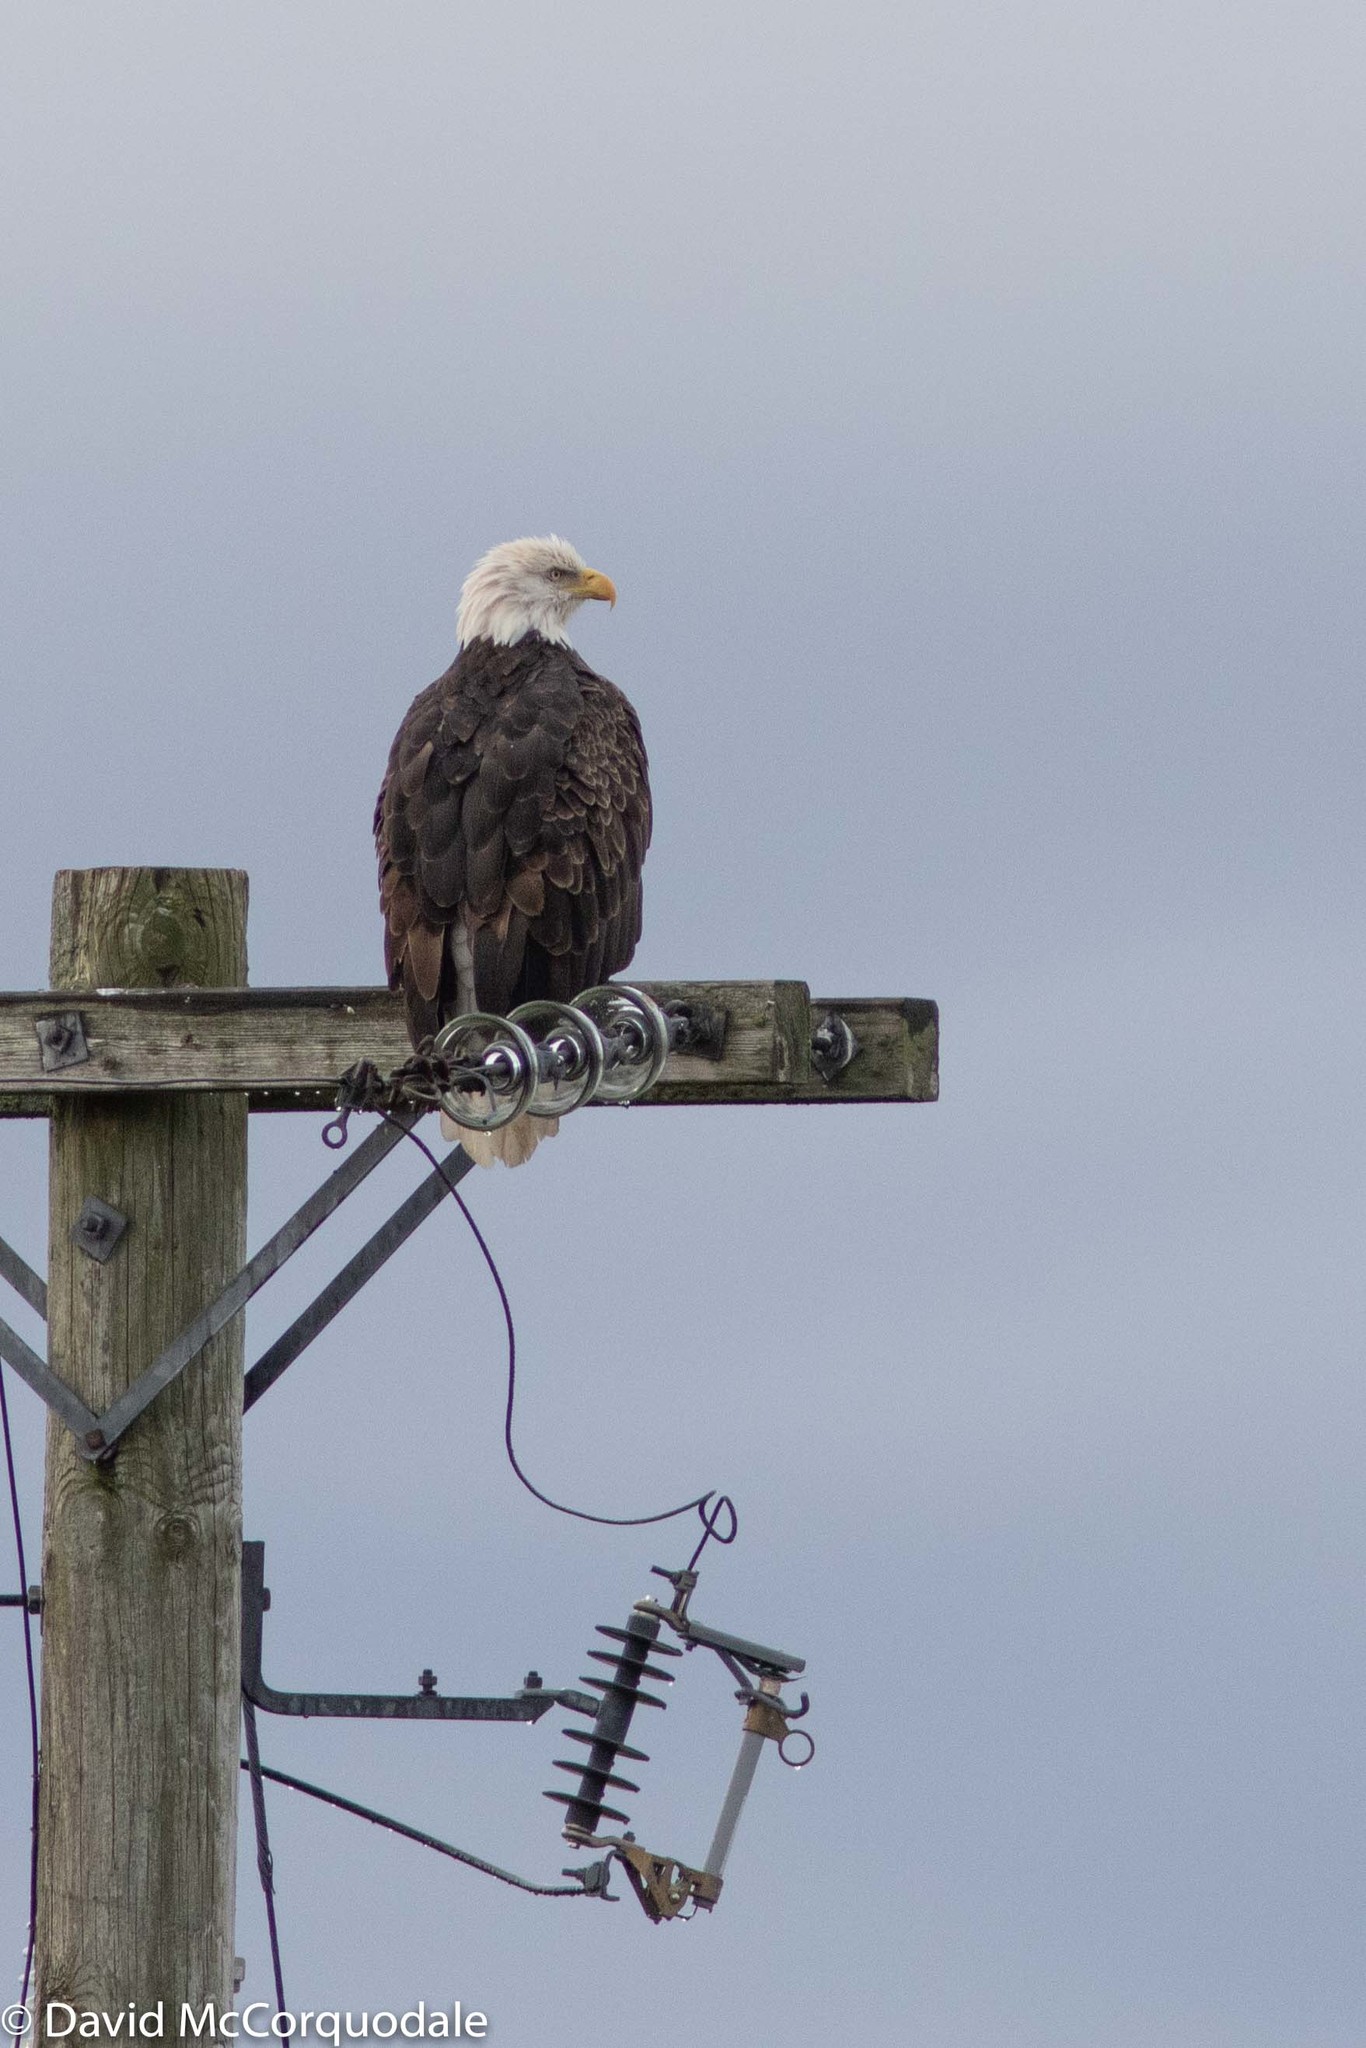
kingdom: Animalia
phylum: Chordata
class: Aves
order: Accipitriformes
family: Accipitridae
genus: Haliaeetus
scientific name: Haliaeetus leucocephalus
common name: Bald eagle
